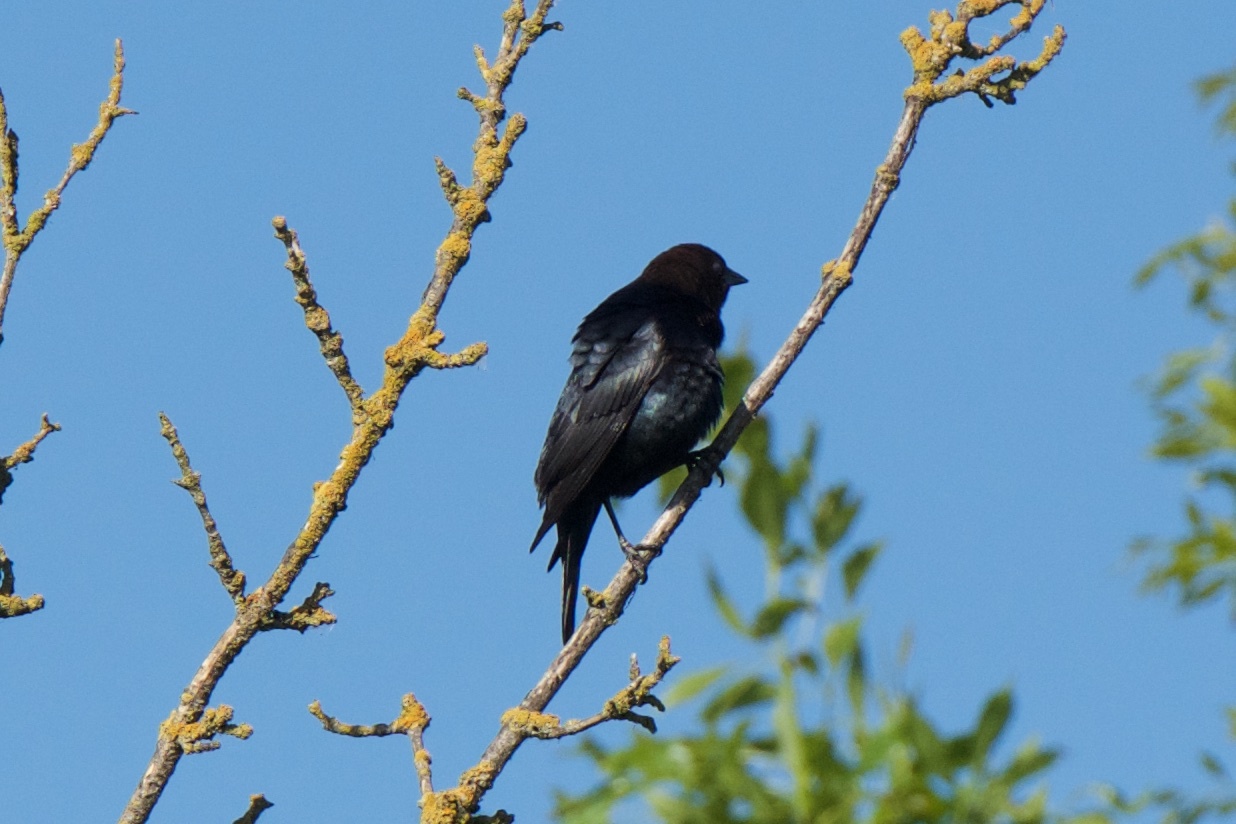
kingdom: Animalia
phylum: Chordata
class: Aves
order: Passeriformes
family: Icteridae
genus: Molothrus
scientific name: Molothrus ater
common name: Brown-headed cowbird
